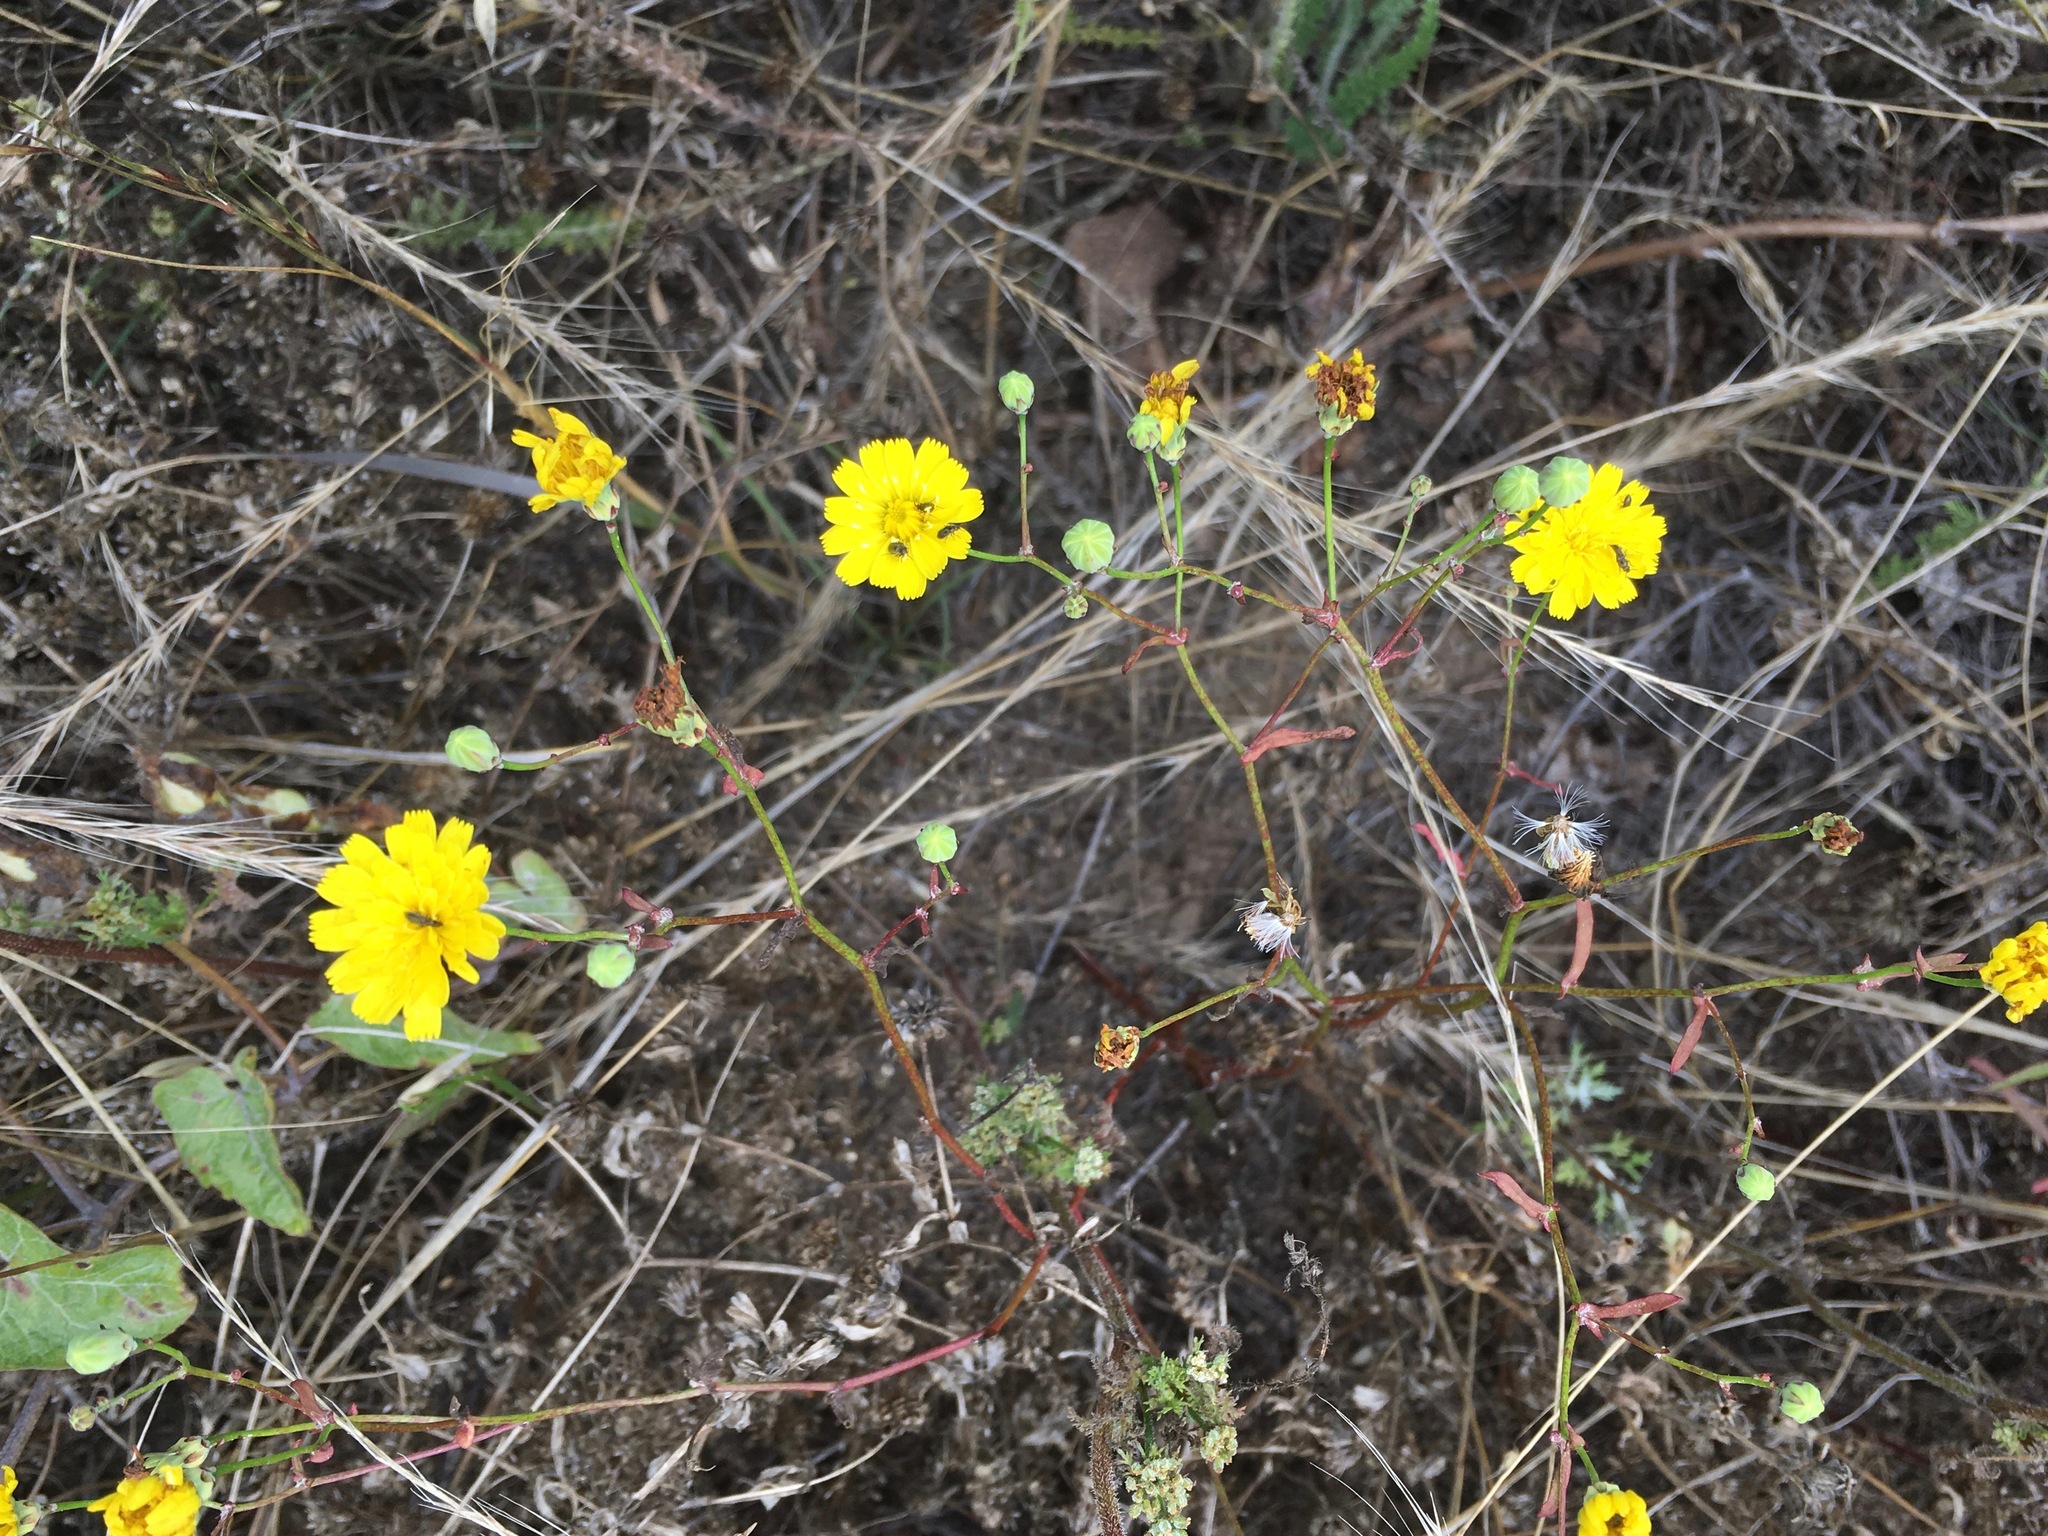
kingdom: Plantae
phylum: Tracheophyta
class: Magnoliopsida
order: Asterales
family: Asteraceae
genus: Malacothrix
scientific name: Malacothrix foliosa
